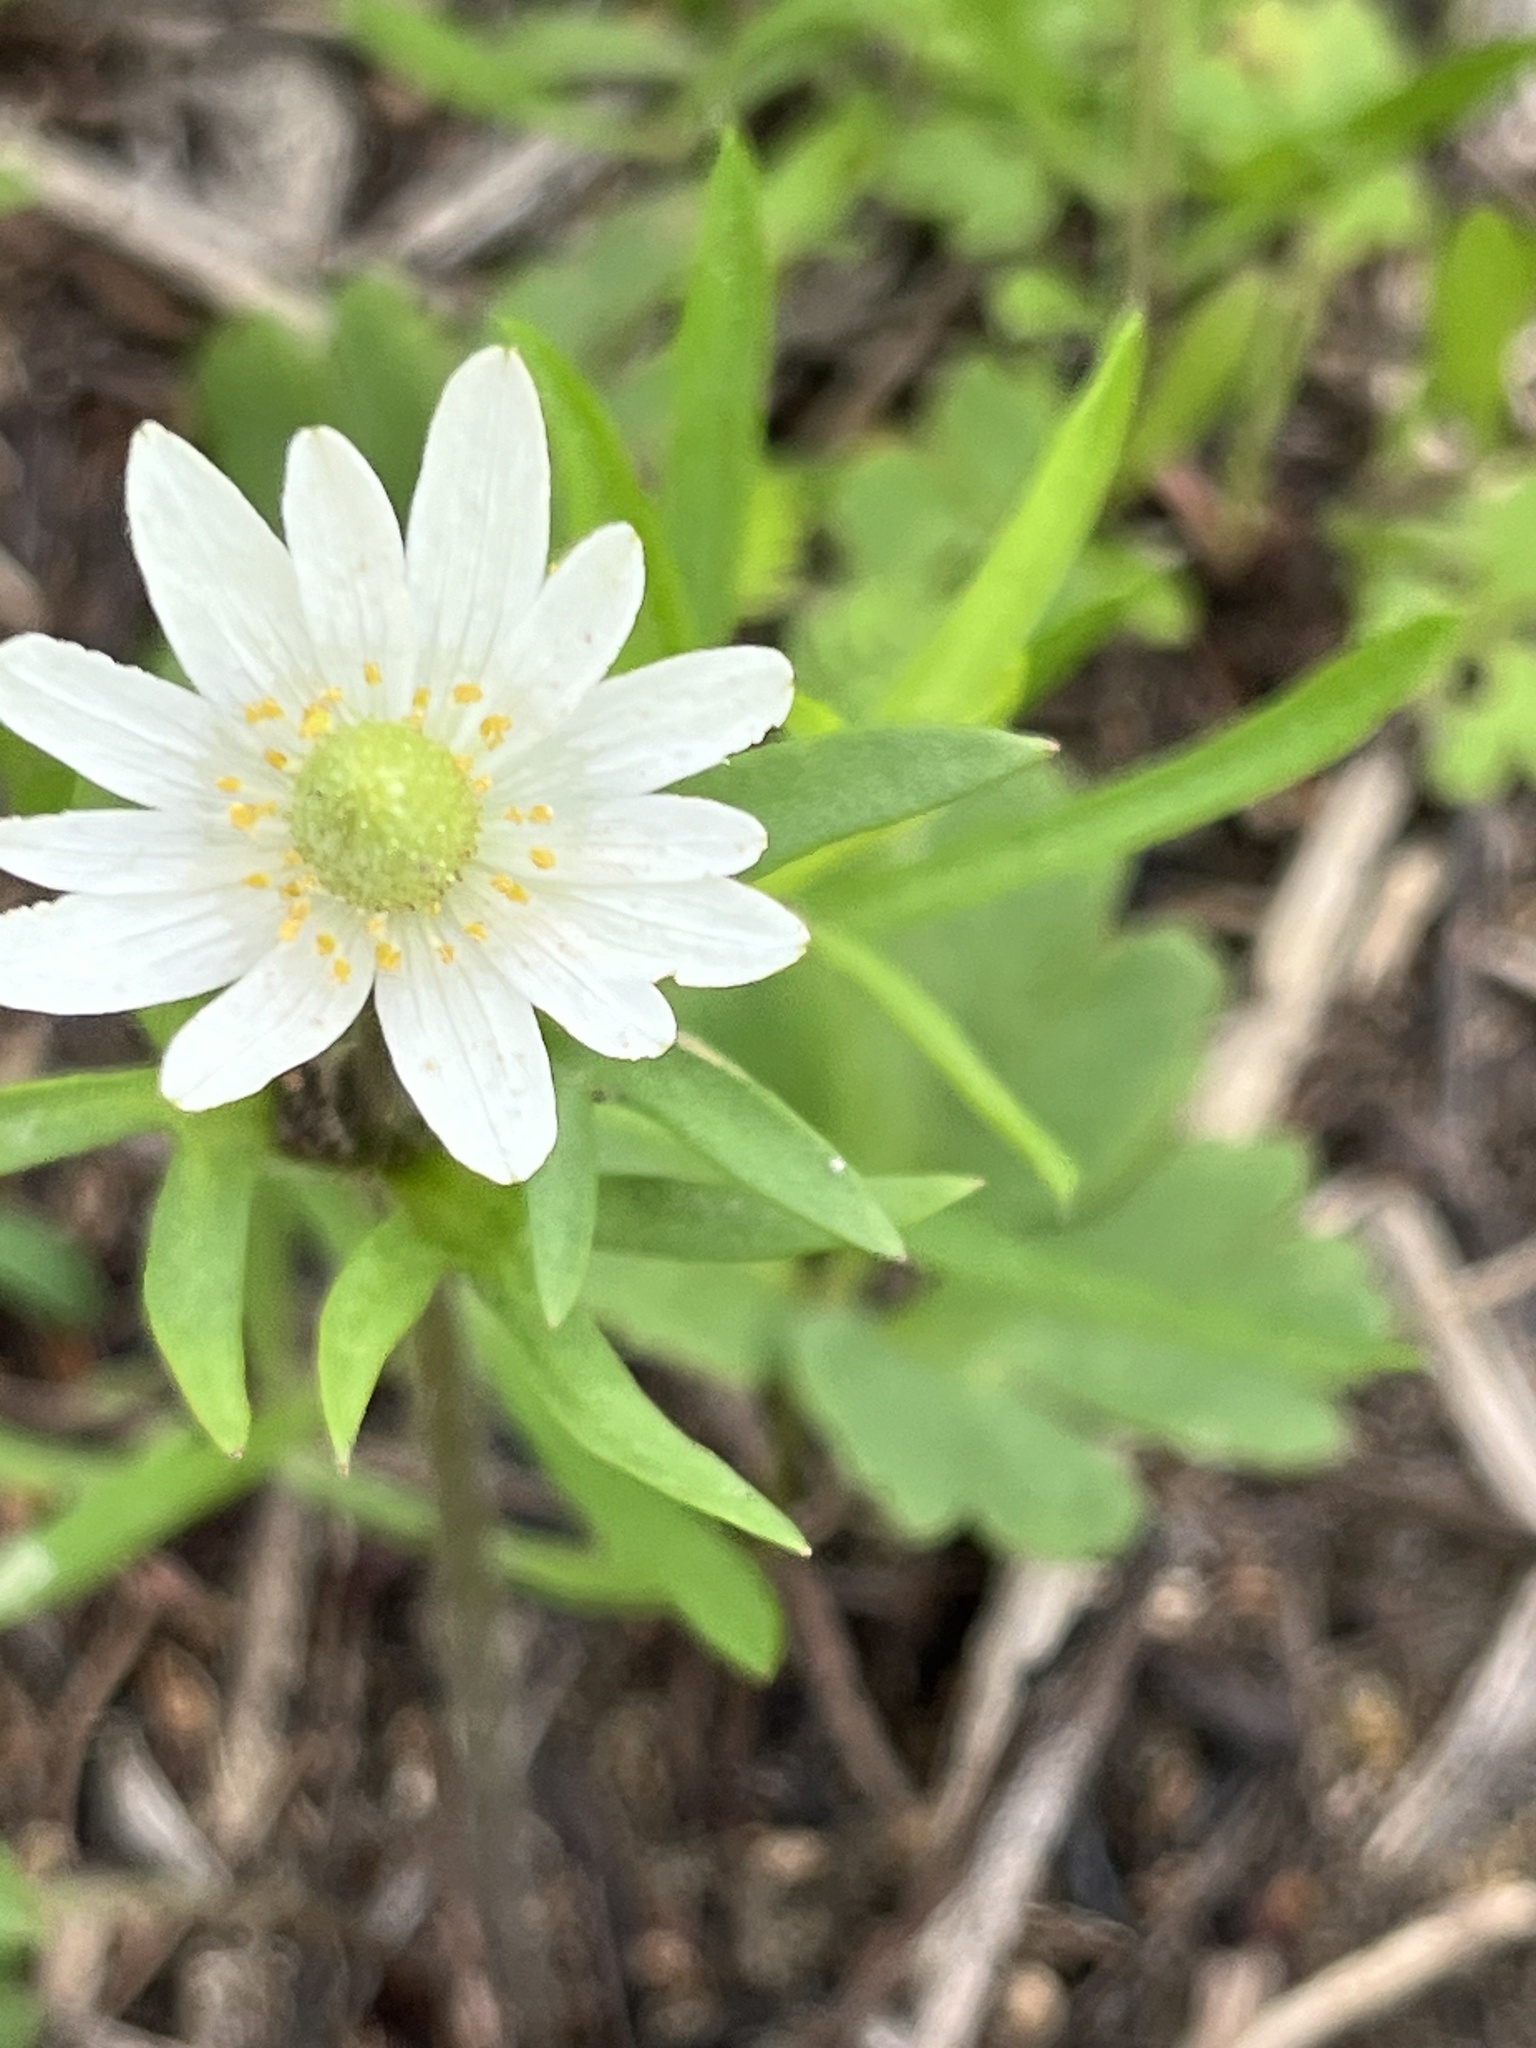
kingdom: Plantae
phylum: Tracheophyta
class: Magnoliopsida
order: Ranunculales
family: Ranunculaceae
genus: Anemone
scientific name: Anemone berlandieri
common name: Ten-petal anemone
